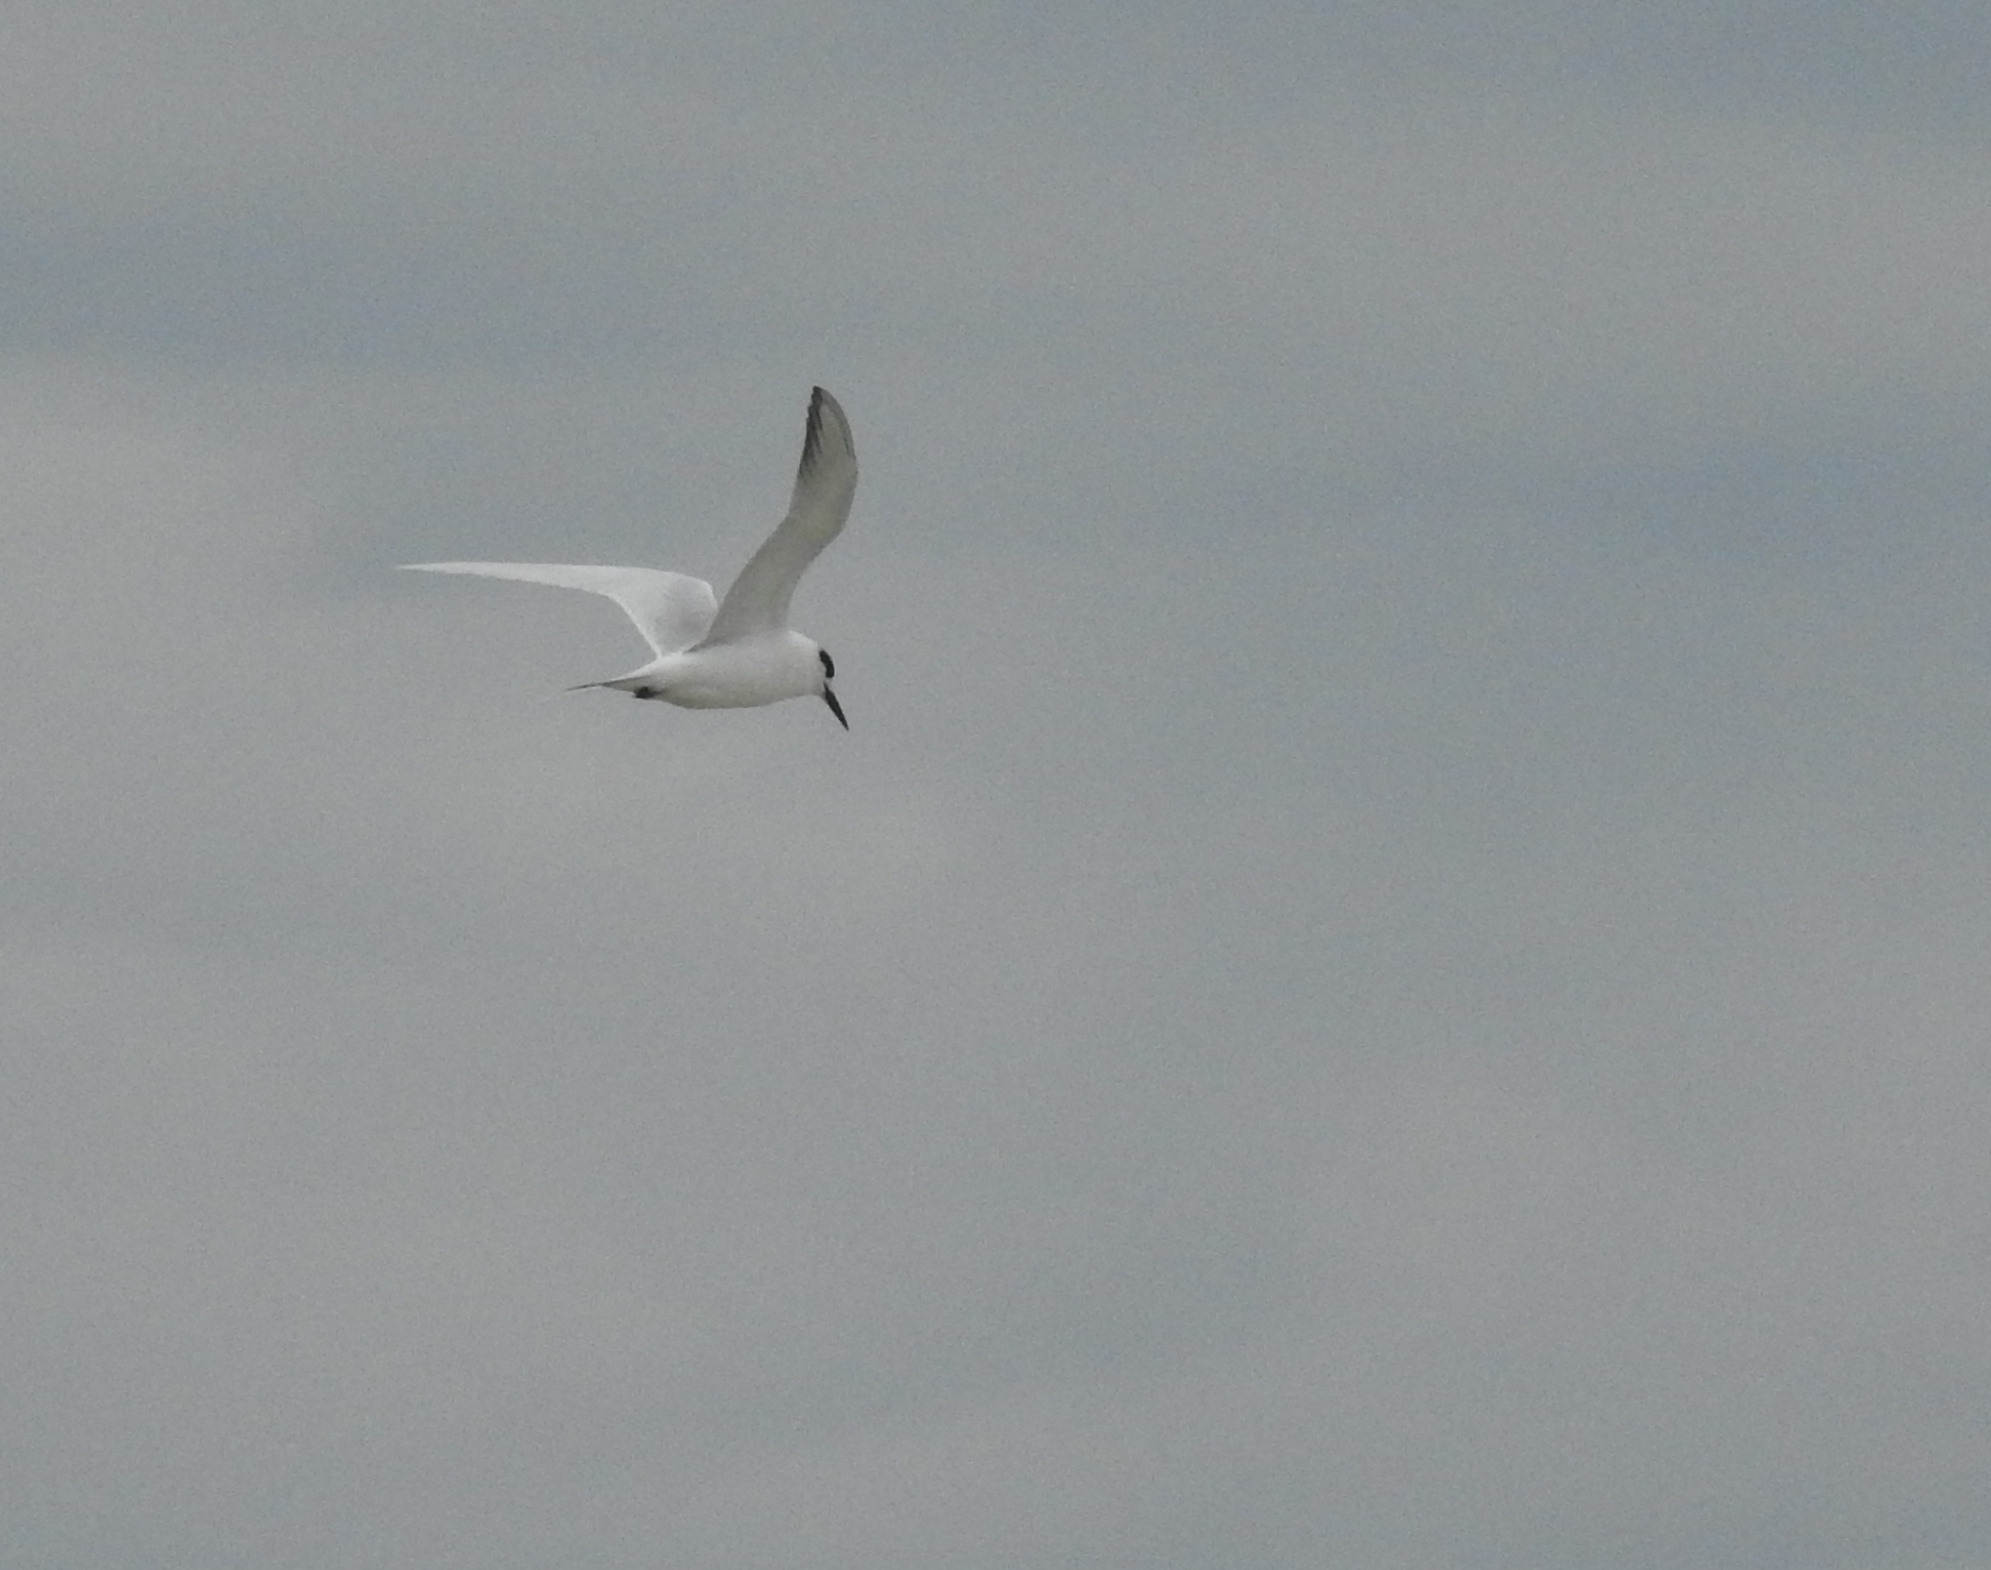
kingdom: Animalia
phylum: Chordata
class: Aves
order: Charadriiformes
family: Laridae
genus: Sterna
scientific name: Sterna forsteri
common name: Forster's tern
